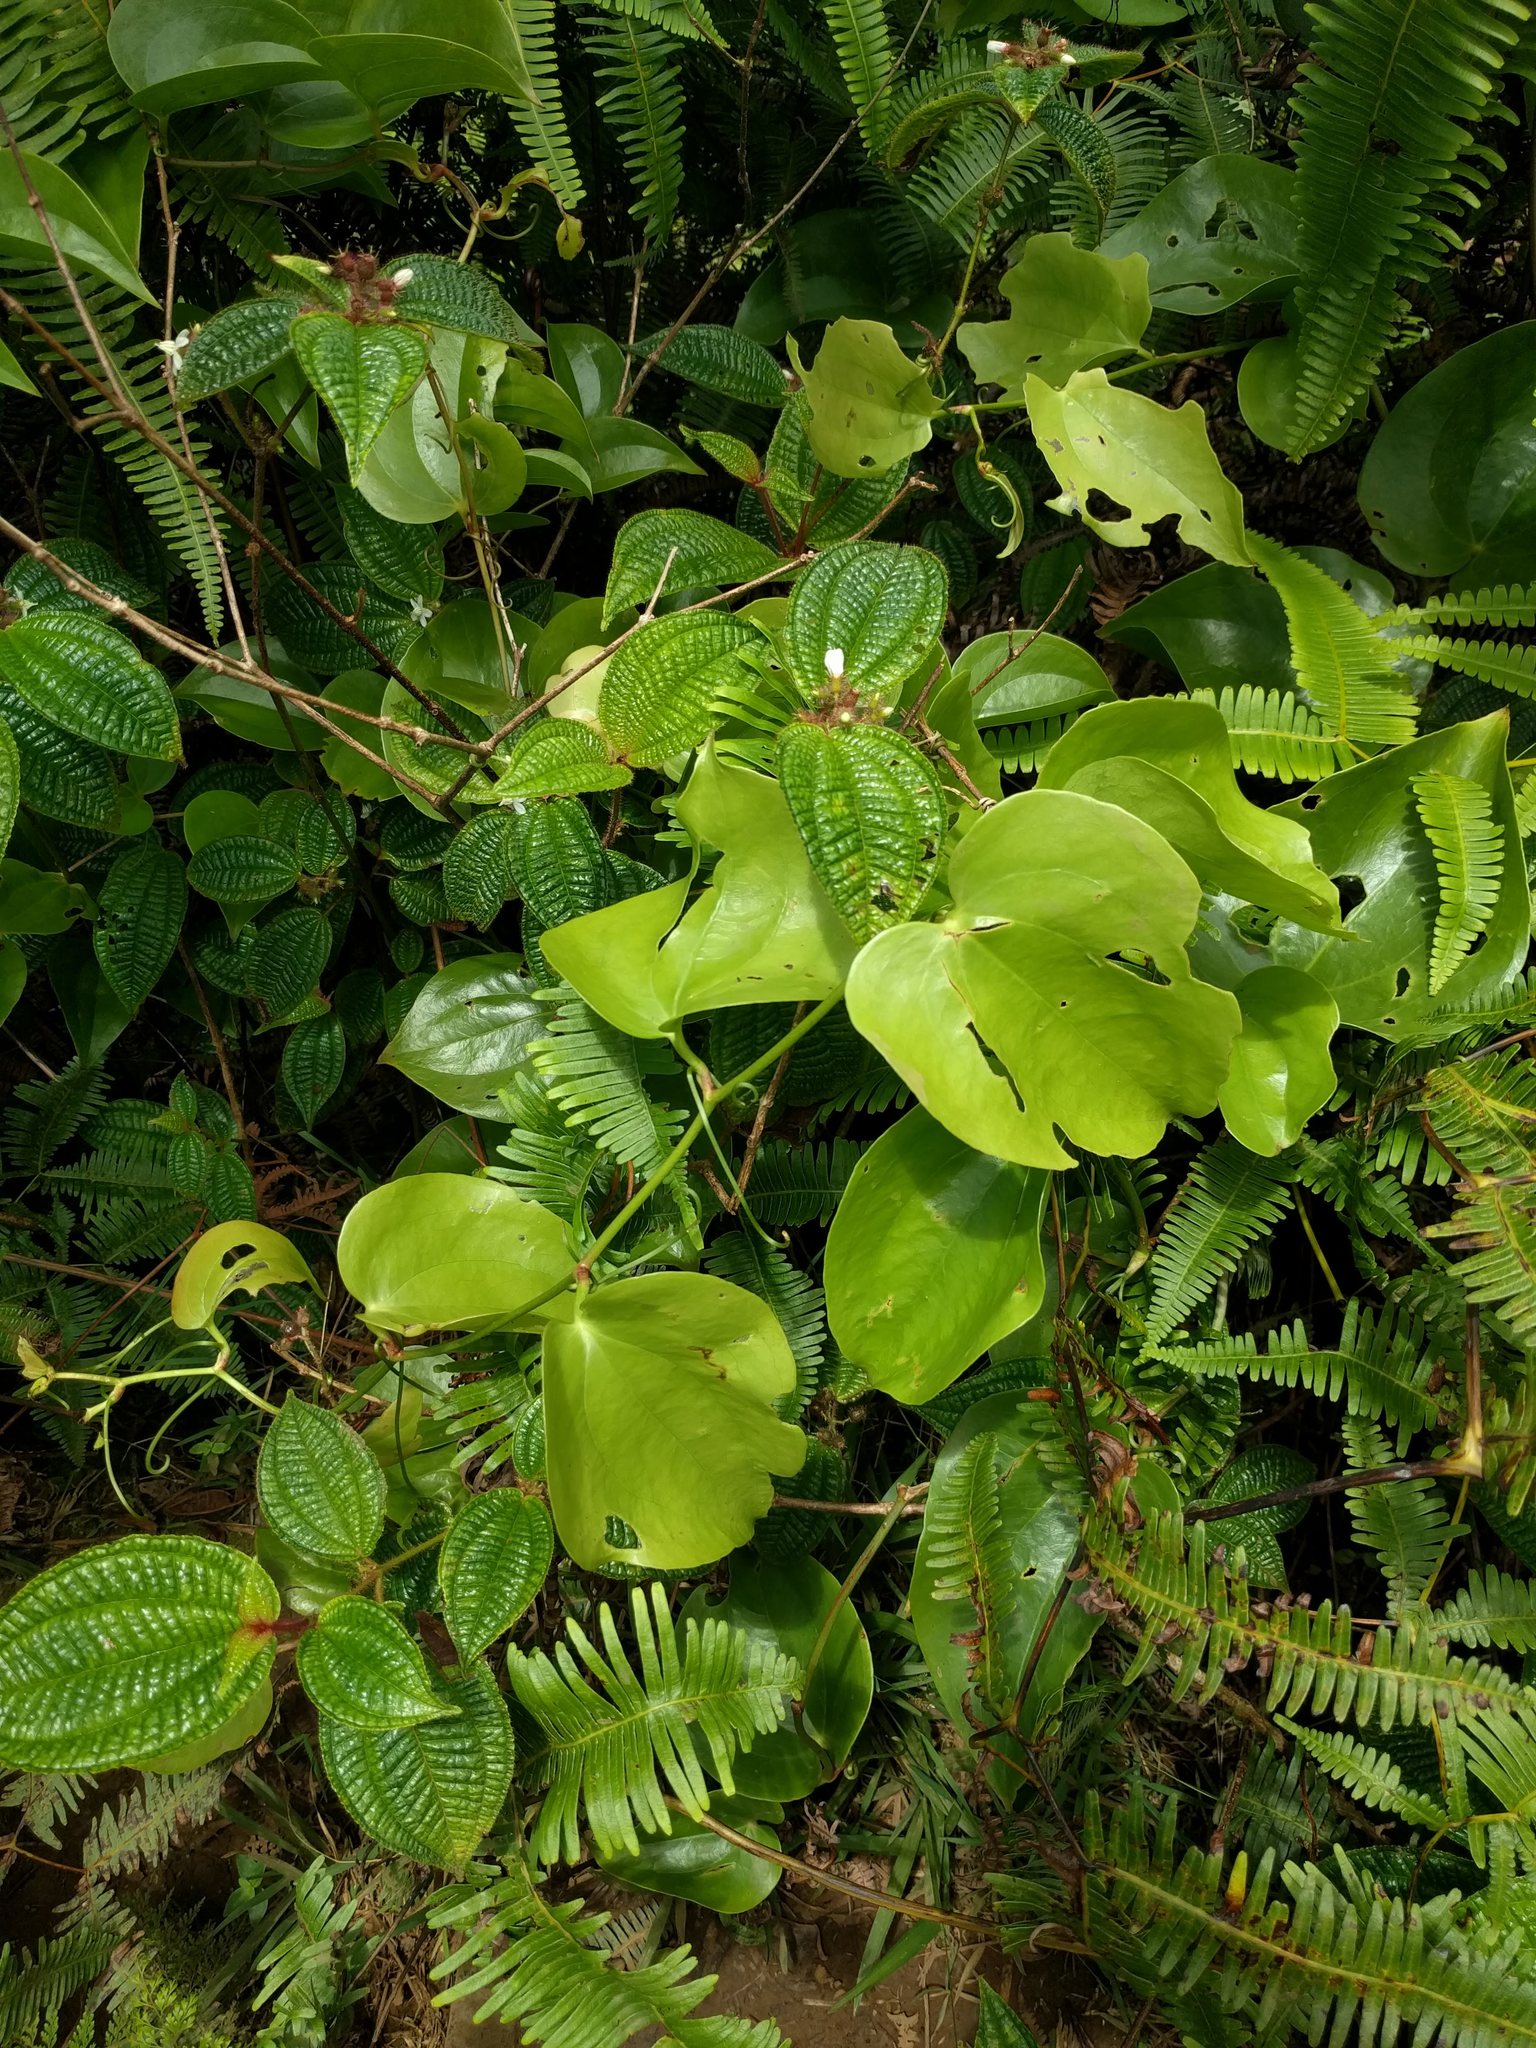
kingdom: Plantae
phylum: Tracheophyta
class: Liliopsida
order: Liliales
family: Smilacaceae
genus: Smilax
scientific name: Smilax melastomifolia
